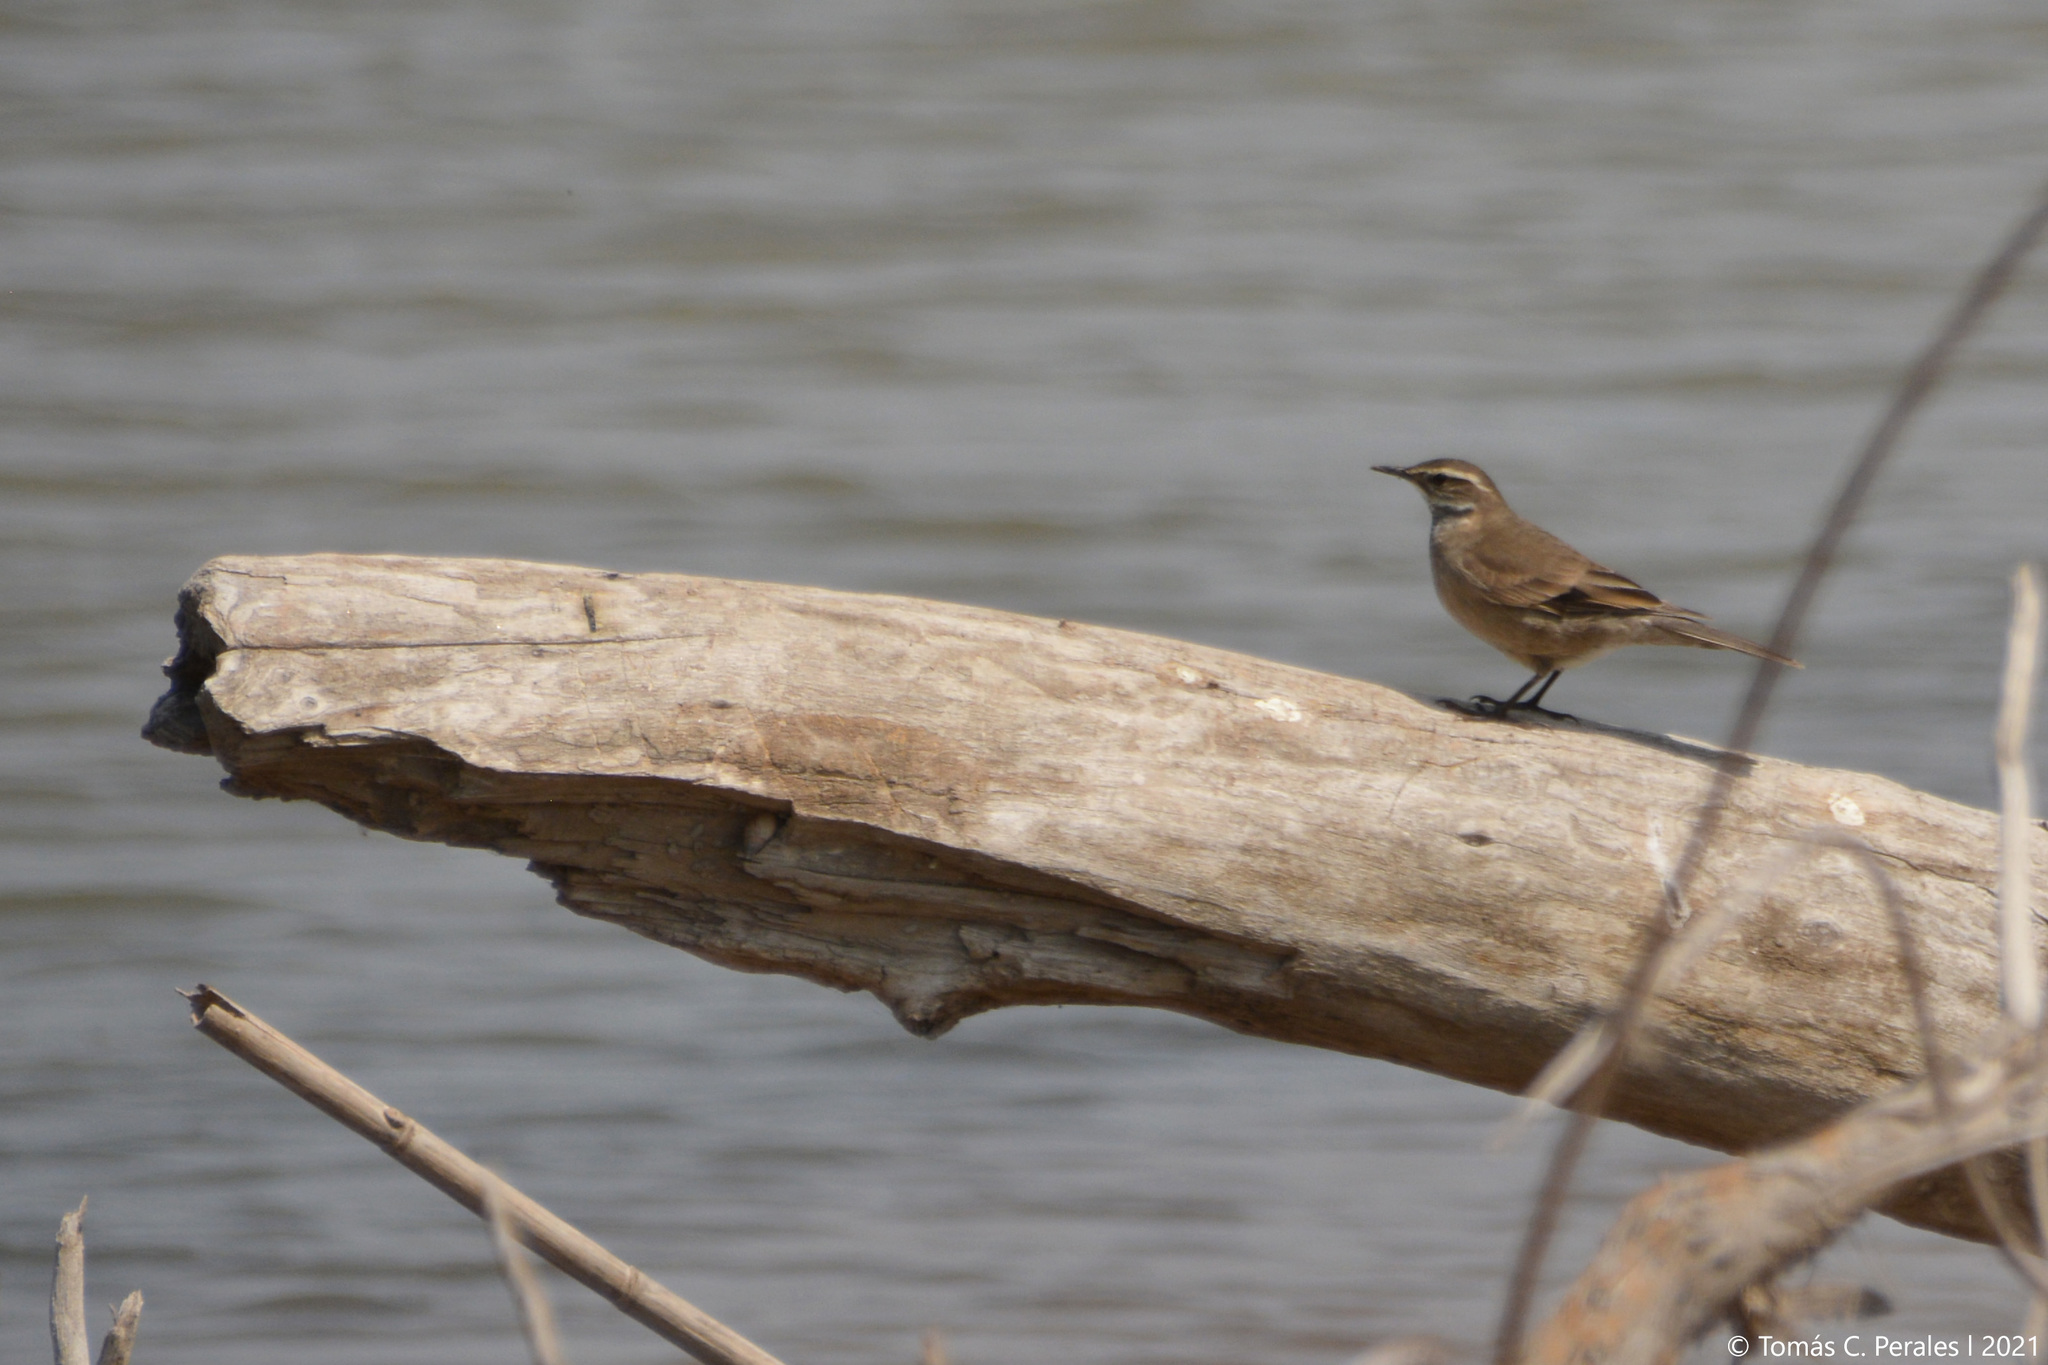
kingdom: Animalia
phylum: Chordata
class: Aves
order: Passeriformes
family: Furnariidae
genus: Cinclodes
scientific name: Cinclodes fuscus
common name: Buff-winged cinclodes
